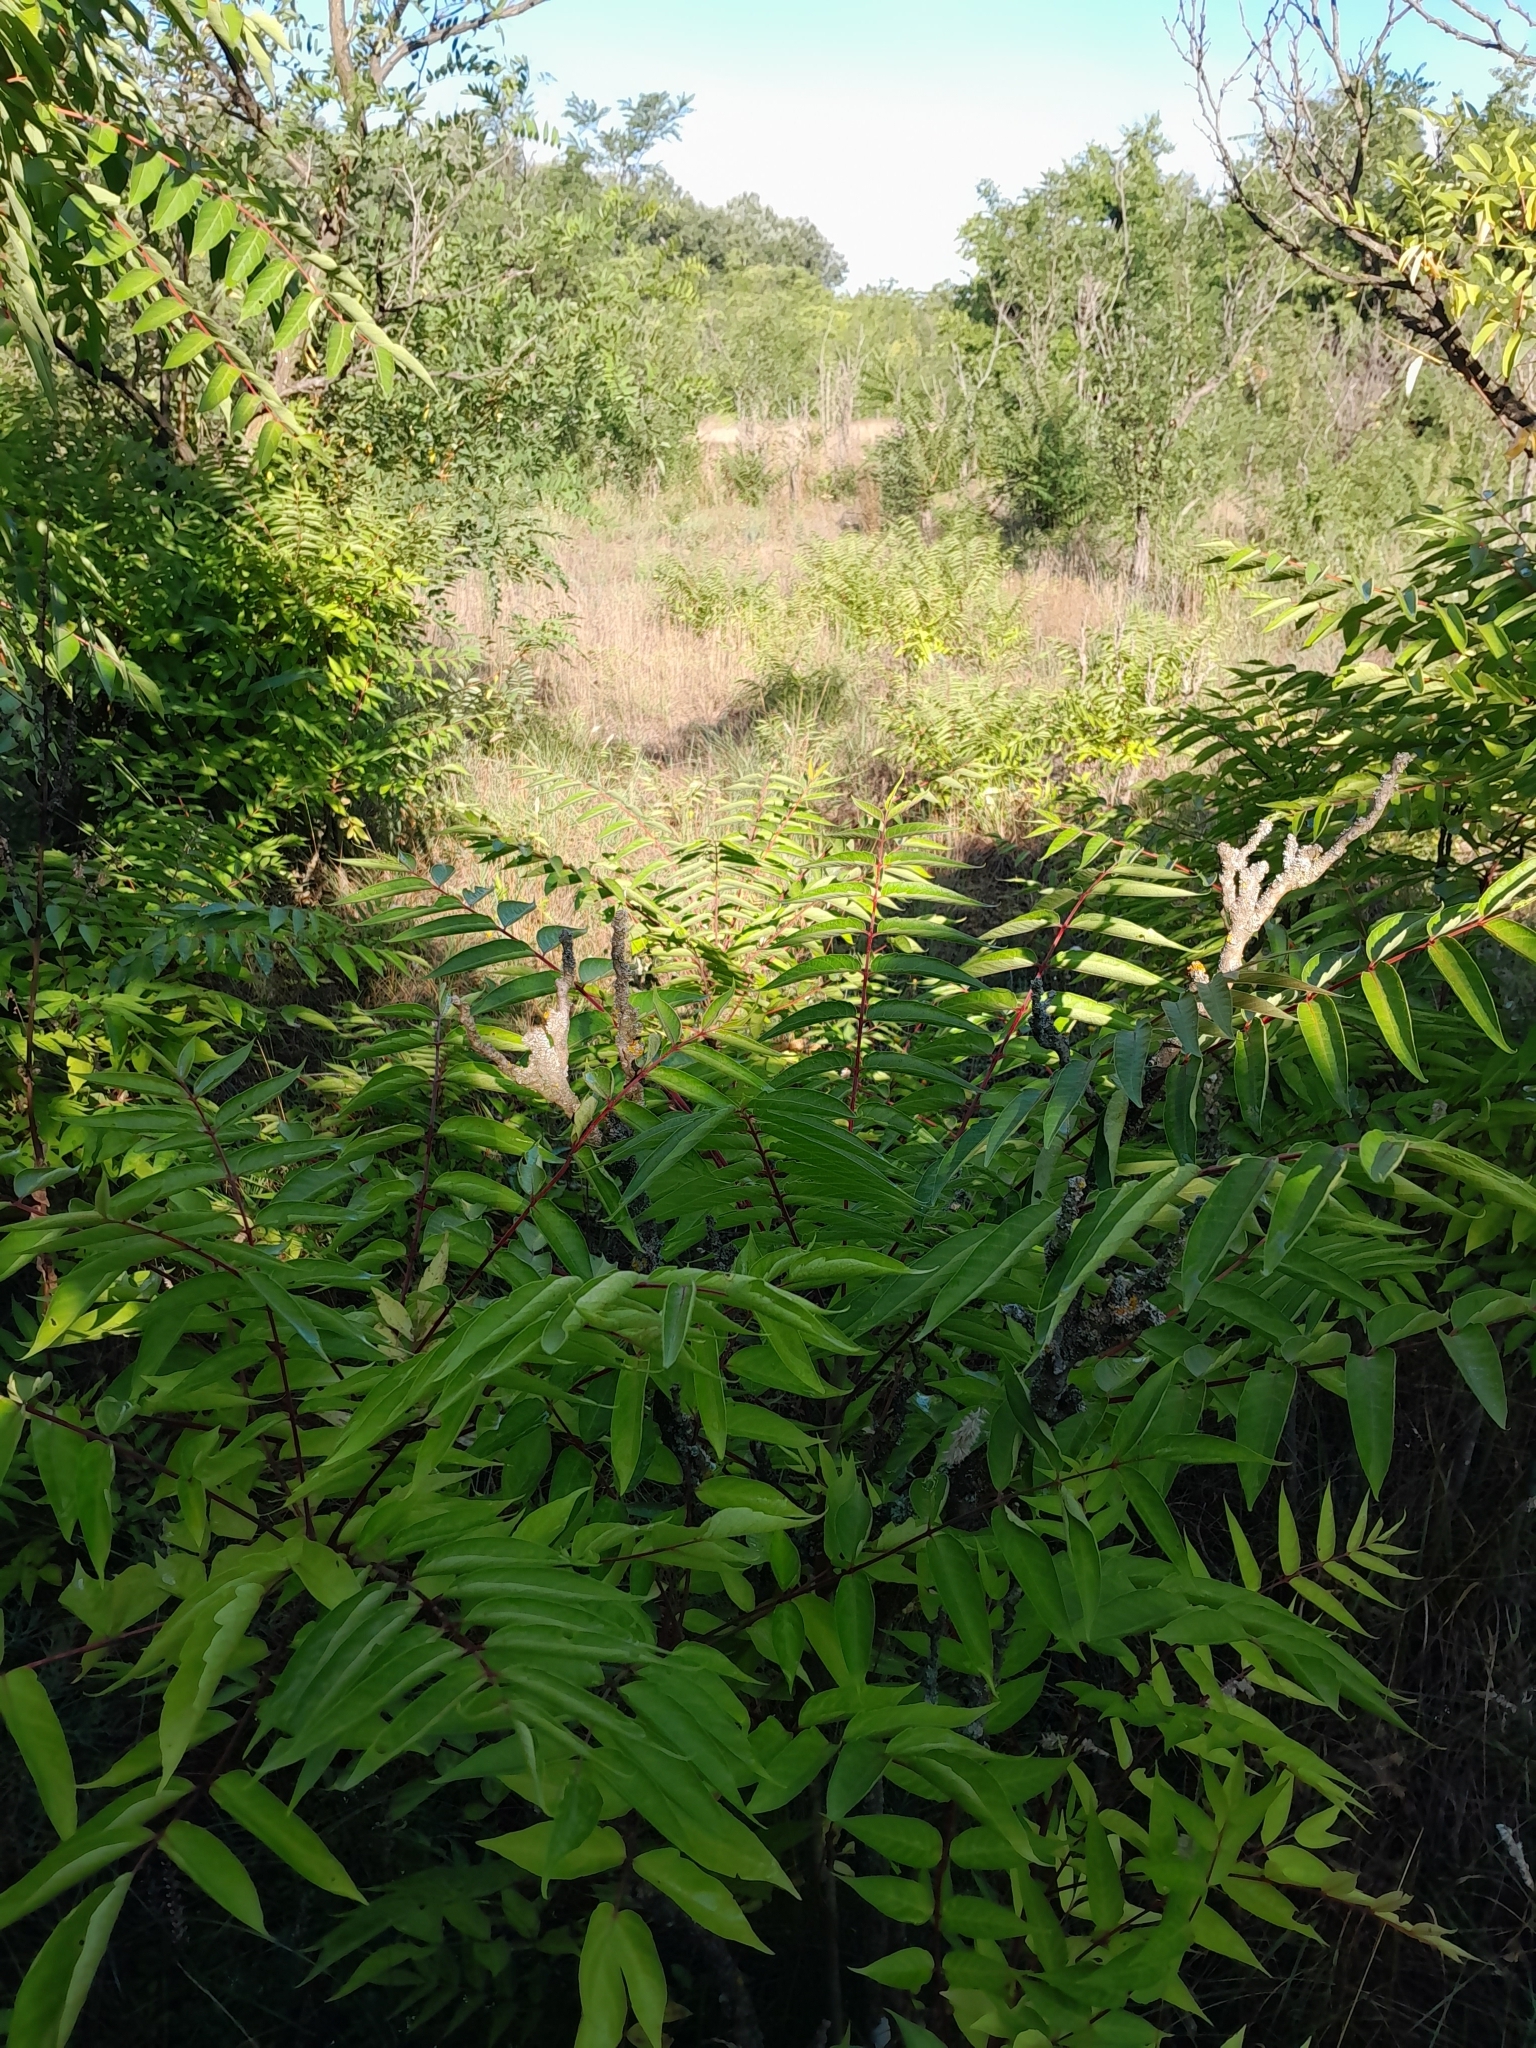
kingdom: Plantae
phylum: Tracheophyta
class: Magnoliopsida
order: Sapindales
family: Simaroubaceae
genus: Ailanthus
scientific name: Ailanthus altissima
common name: Tree-of-heaven
